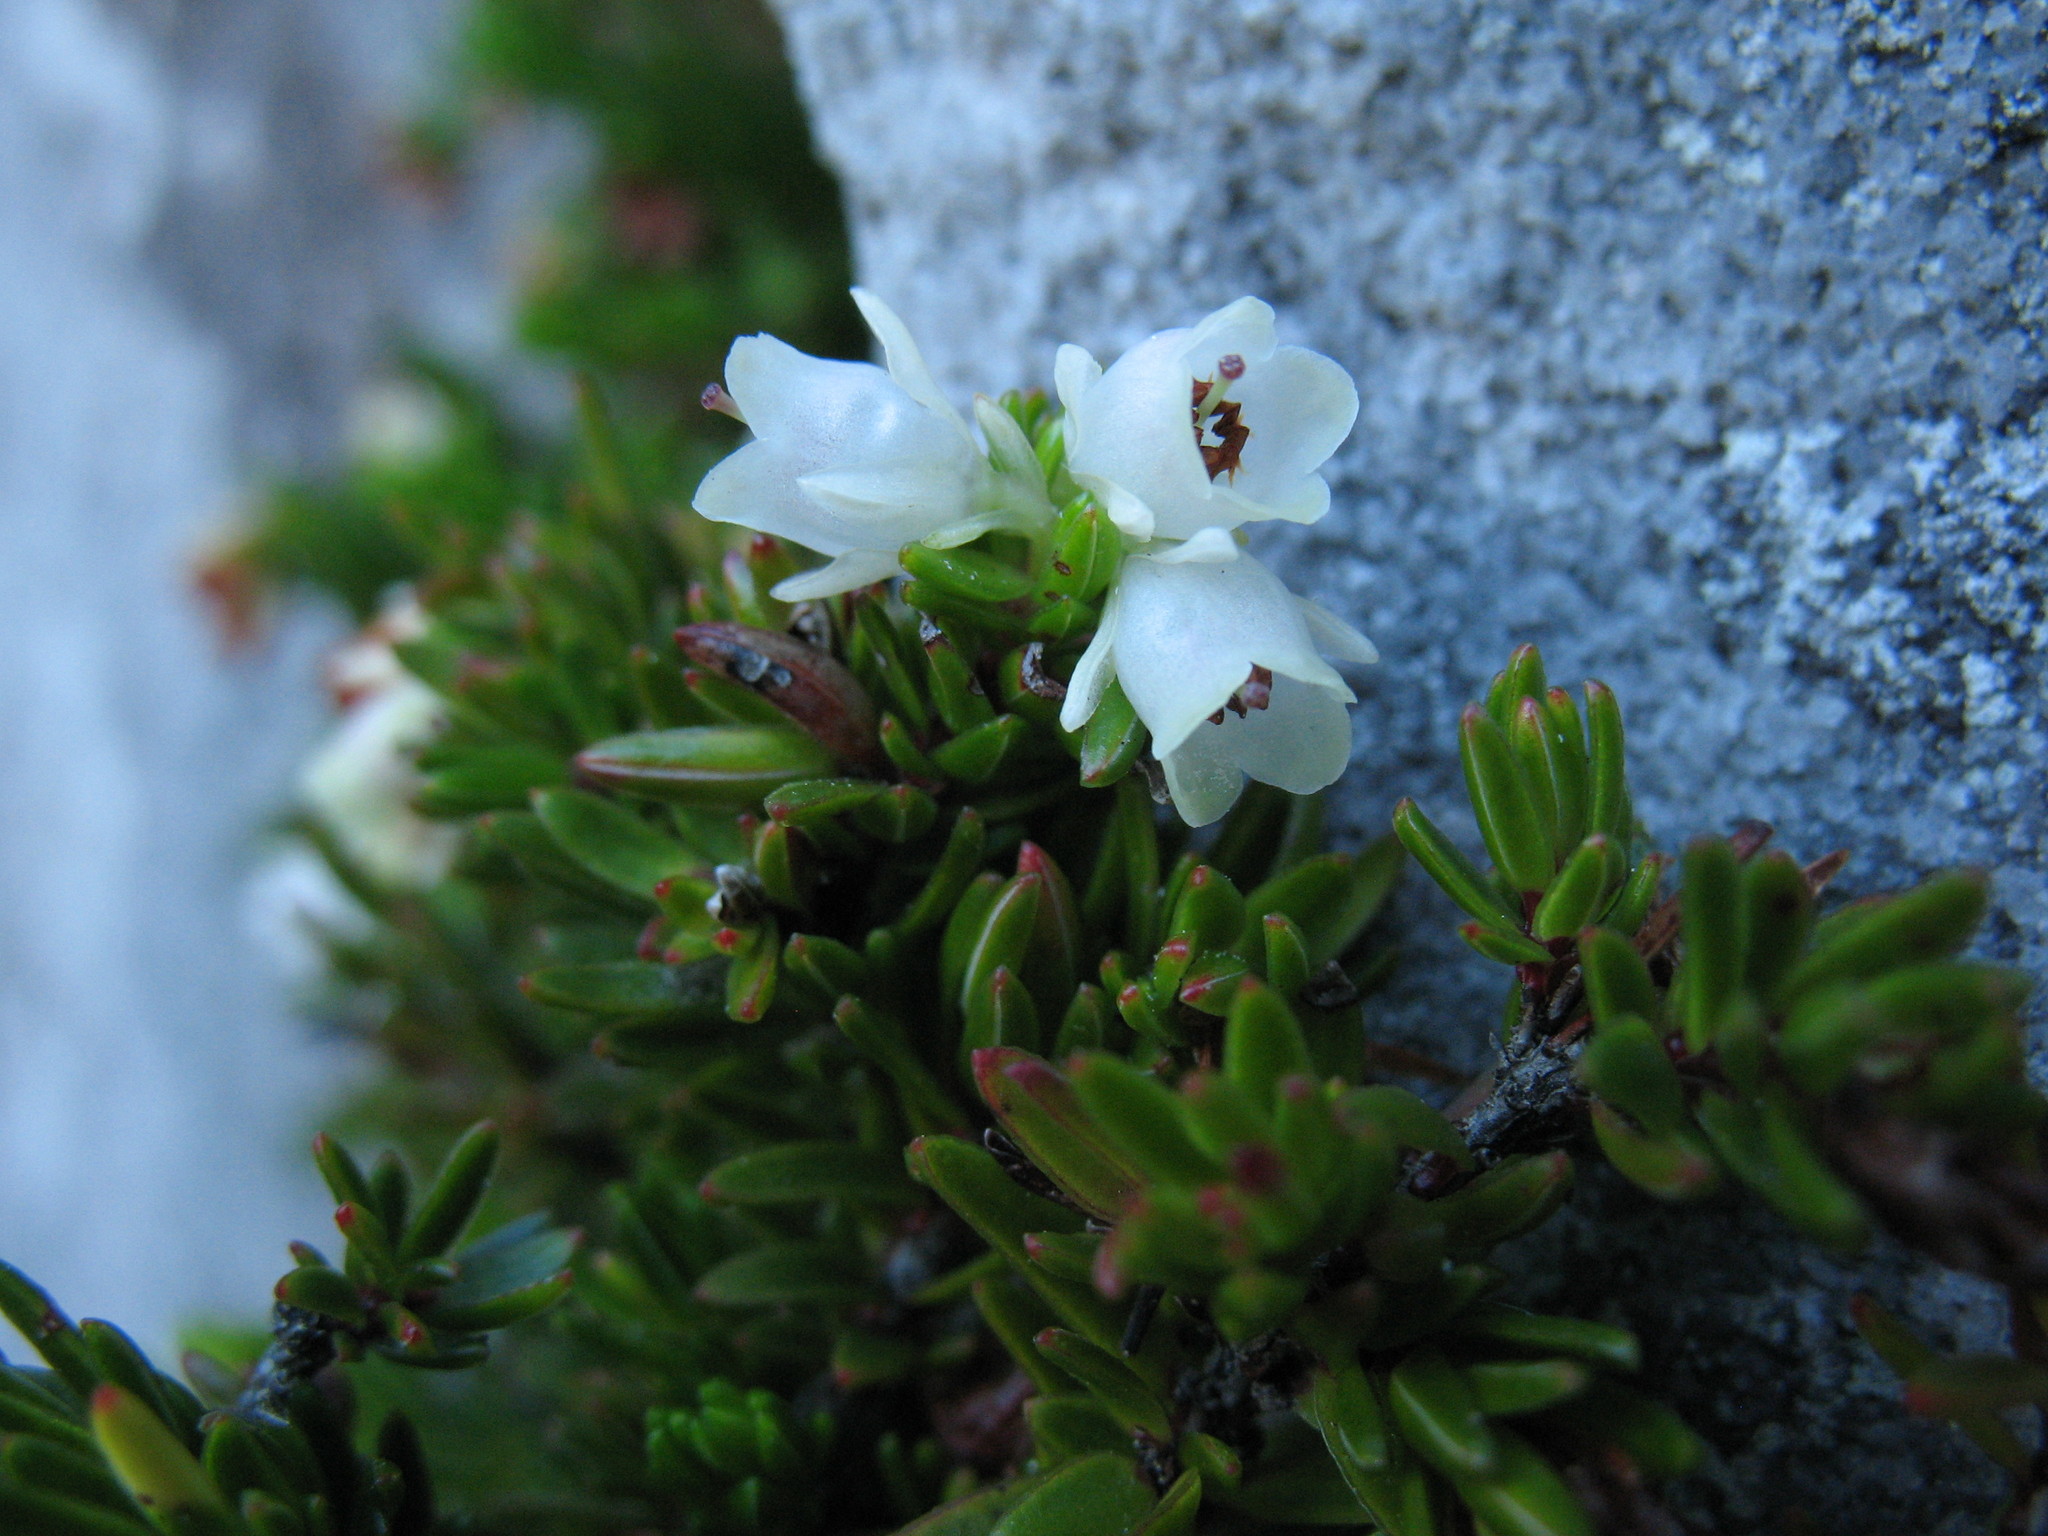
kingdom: Plantae
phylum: Tracheophyta
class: Magnoliopsida
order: Ericales
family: Ericaceae
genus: Erica
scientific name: Erica depressa
